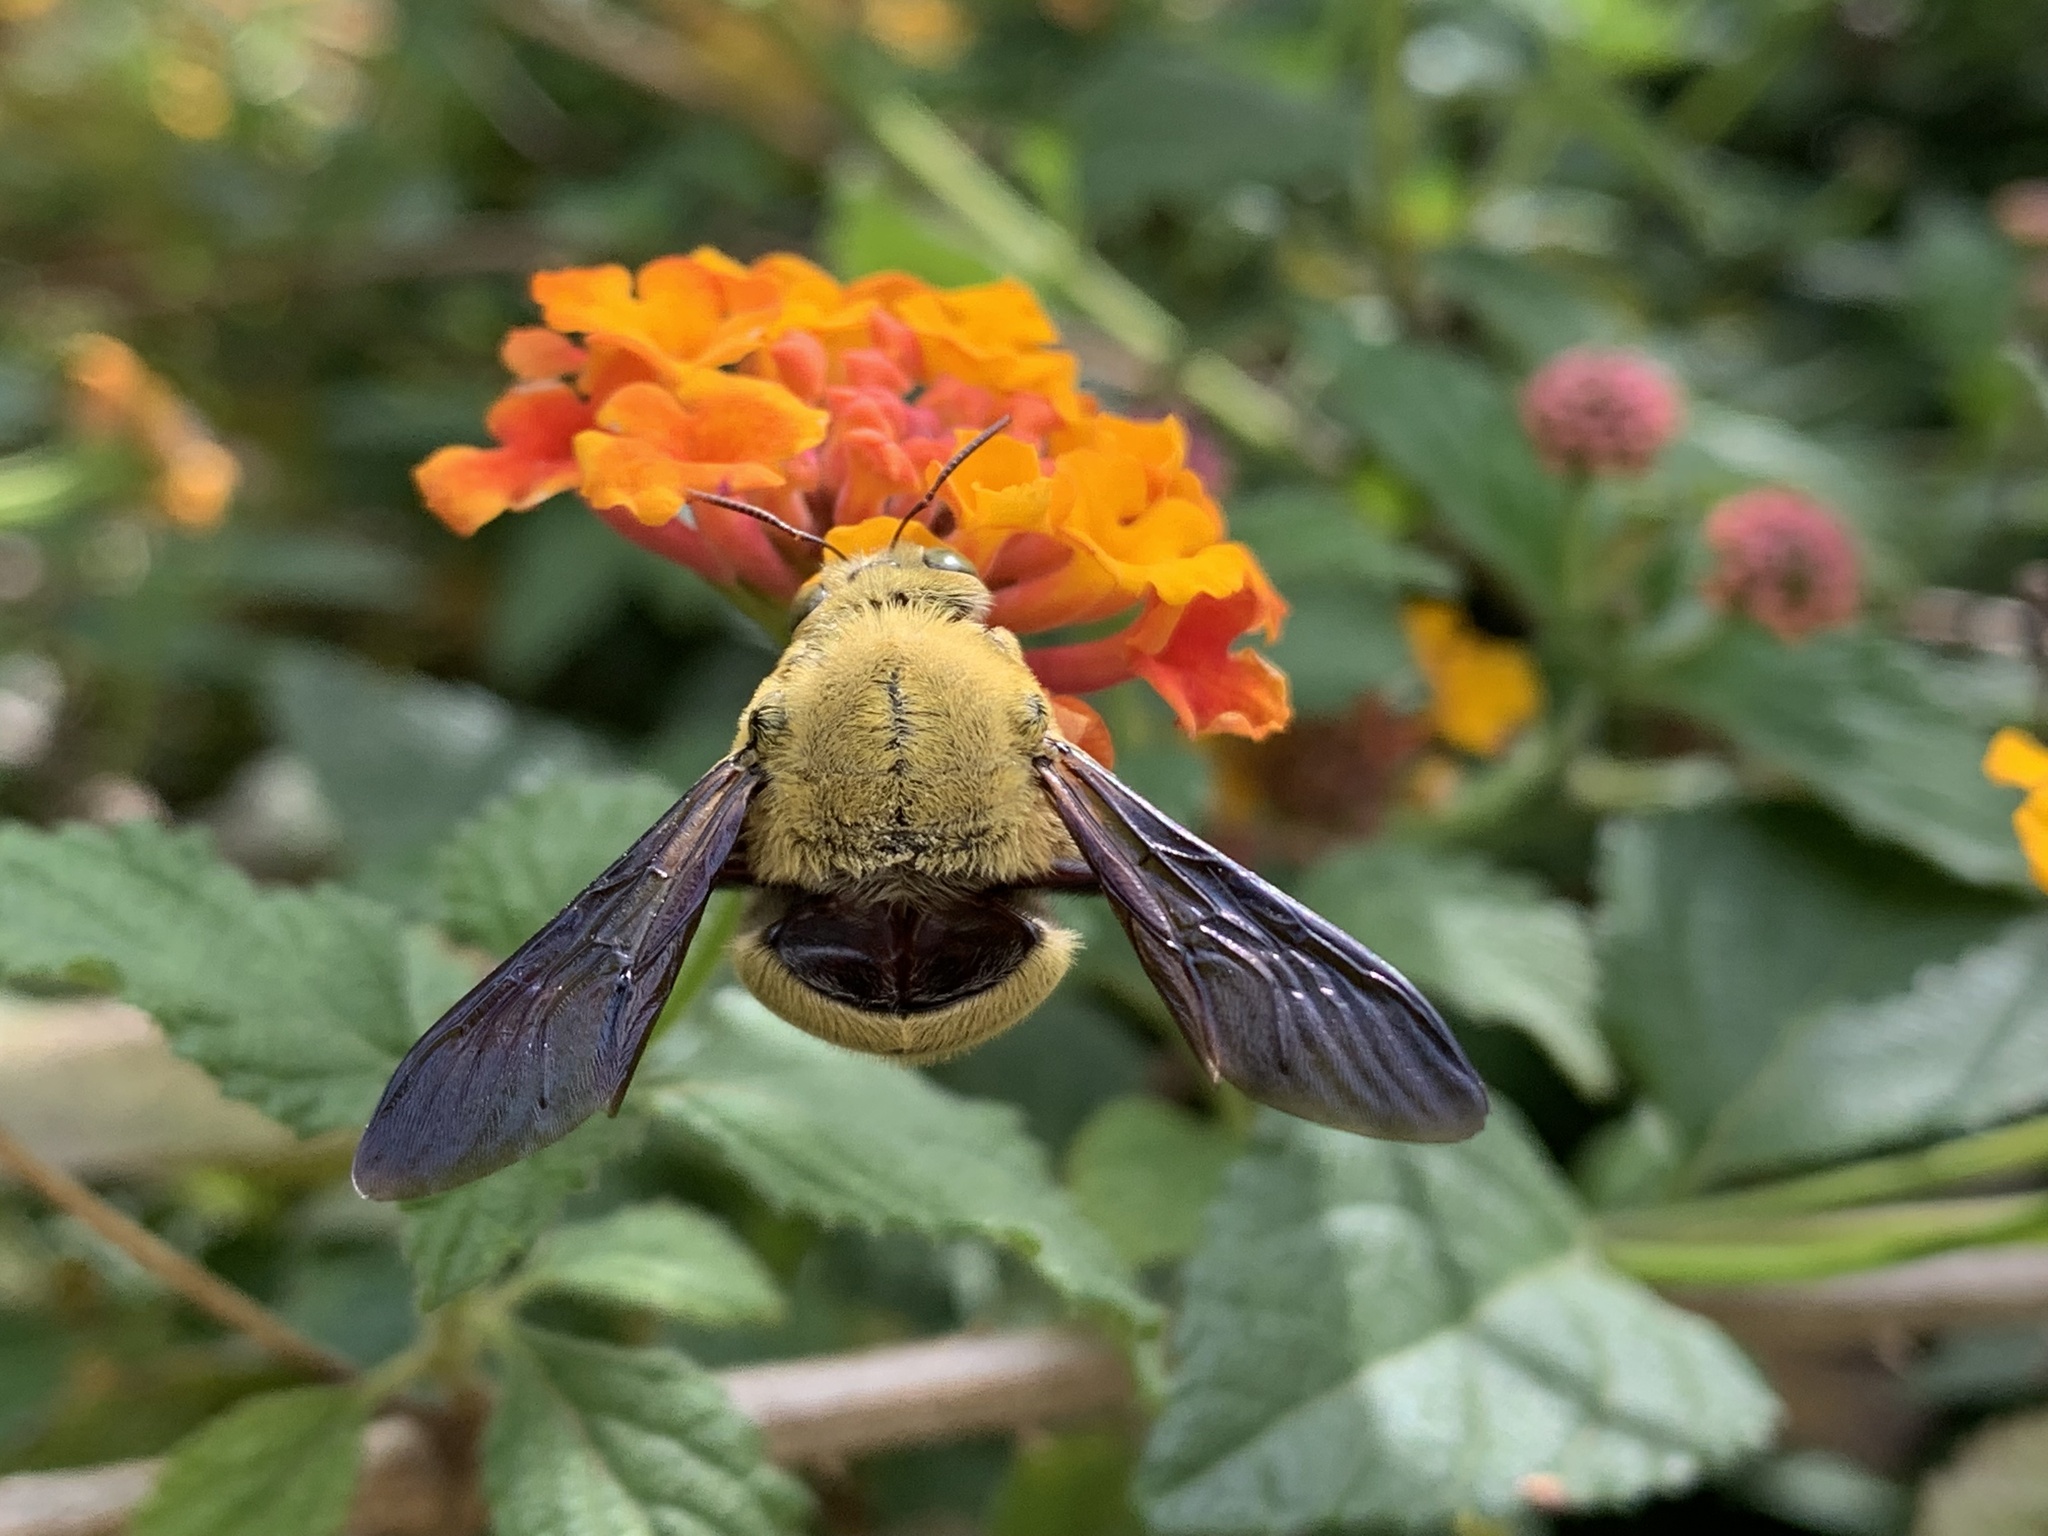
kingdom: Animalia
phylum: Arthropoda
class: Insecta
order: Hymenoptera
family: Apidae
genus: Xylocopa
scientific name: Xylocopa pubescens
